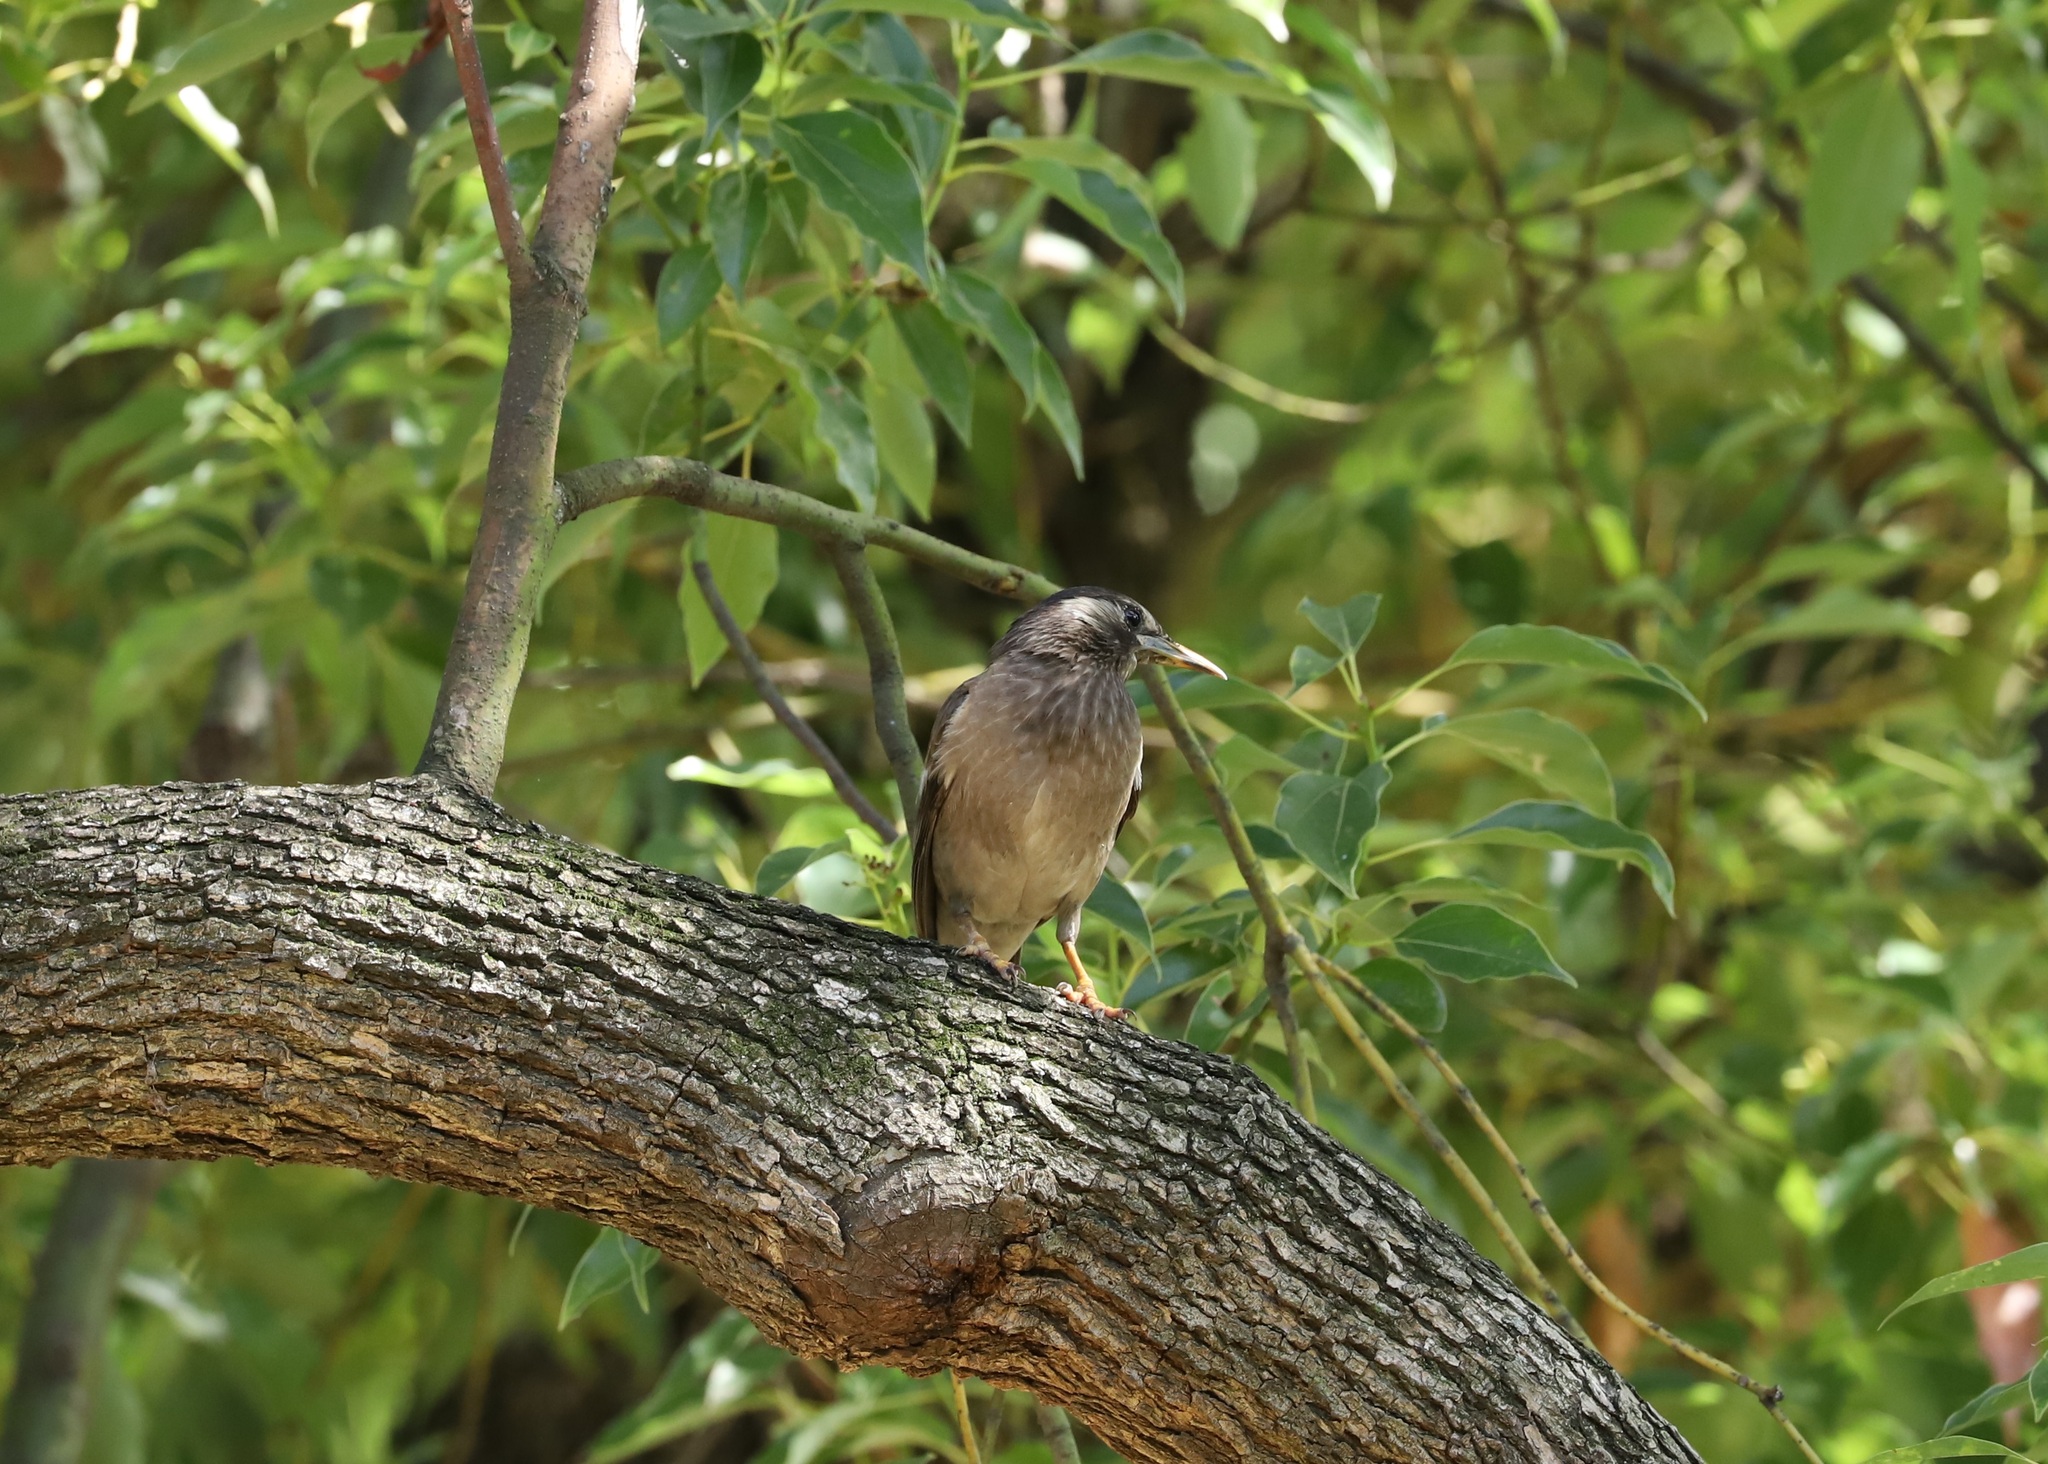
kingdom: Animalia
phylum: Chordata
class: Aves
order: Passeriformes
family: Sturnidae
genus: Spodiopsar
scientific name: Spodiopsar cineraceus
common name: White-cheeked starling
